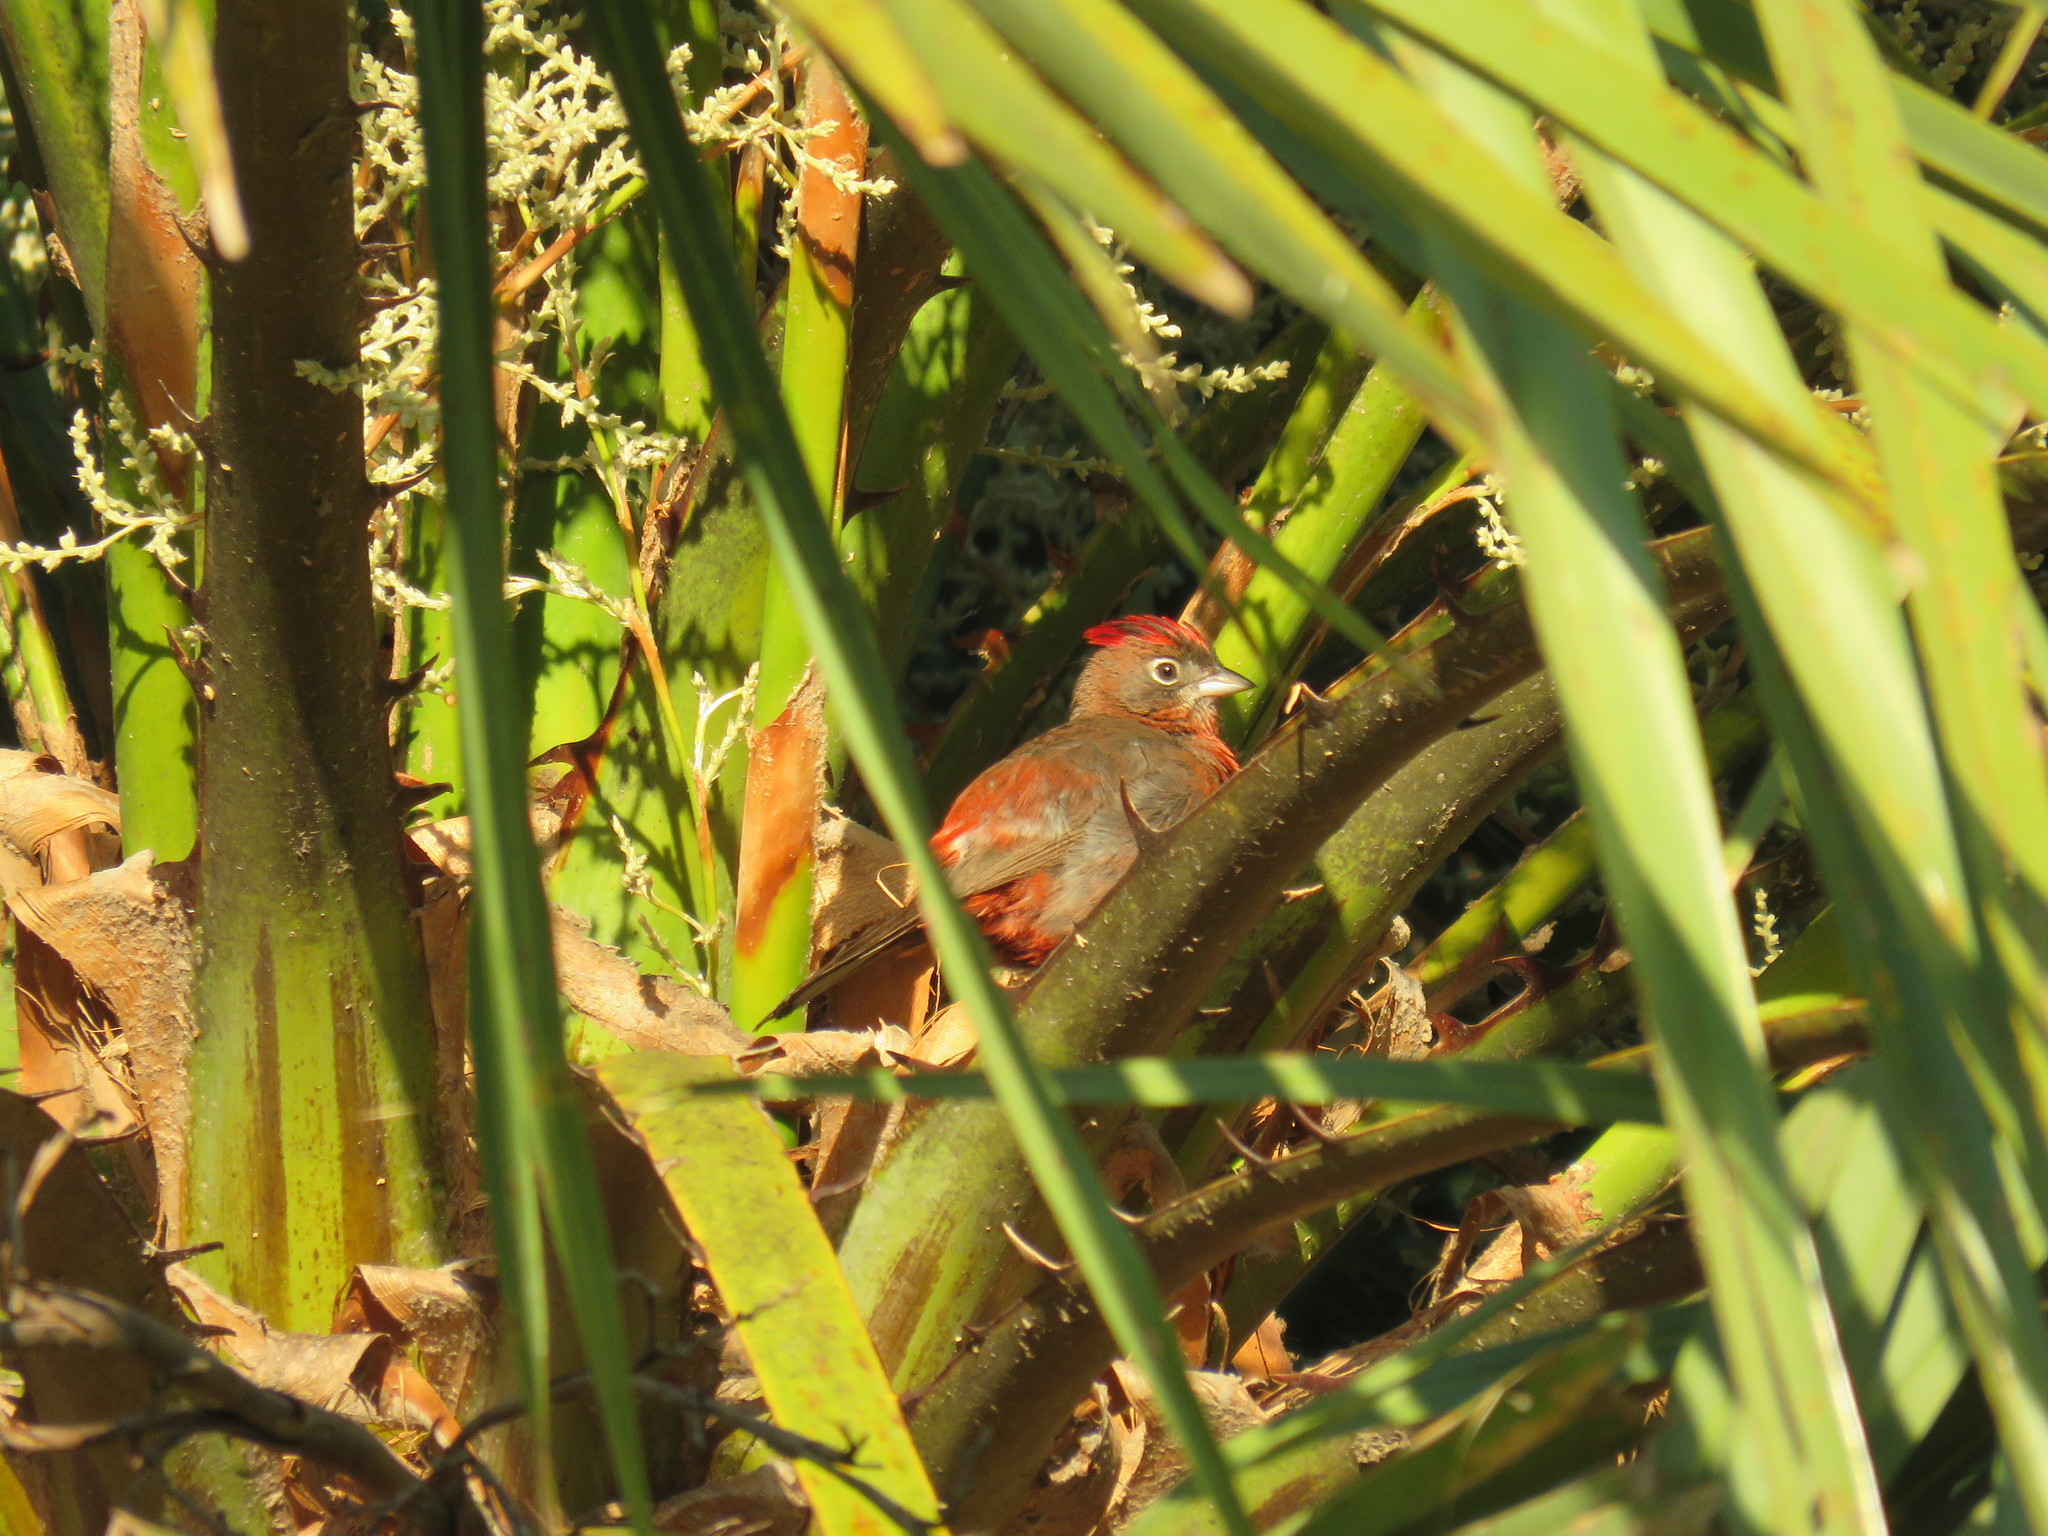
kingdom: Animalia
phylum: Chordata
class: Aves
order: Passeriformes
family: Thraupidae
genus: Coryphospingus
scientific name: Coryphospingus cucullatus
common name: Red pileated finch
